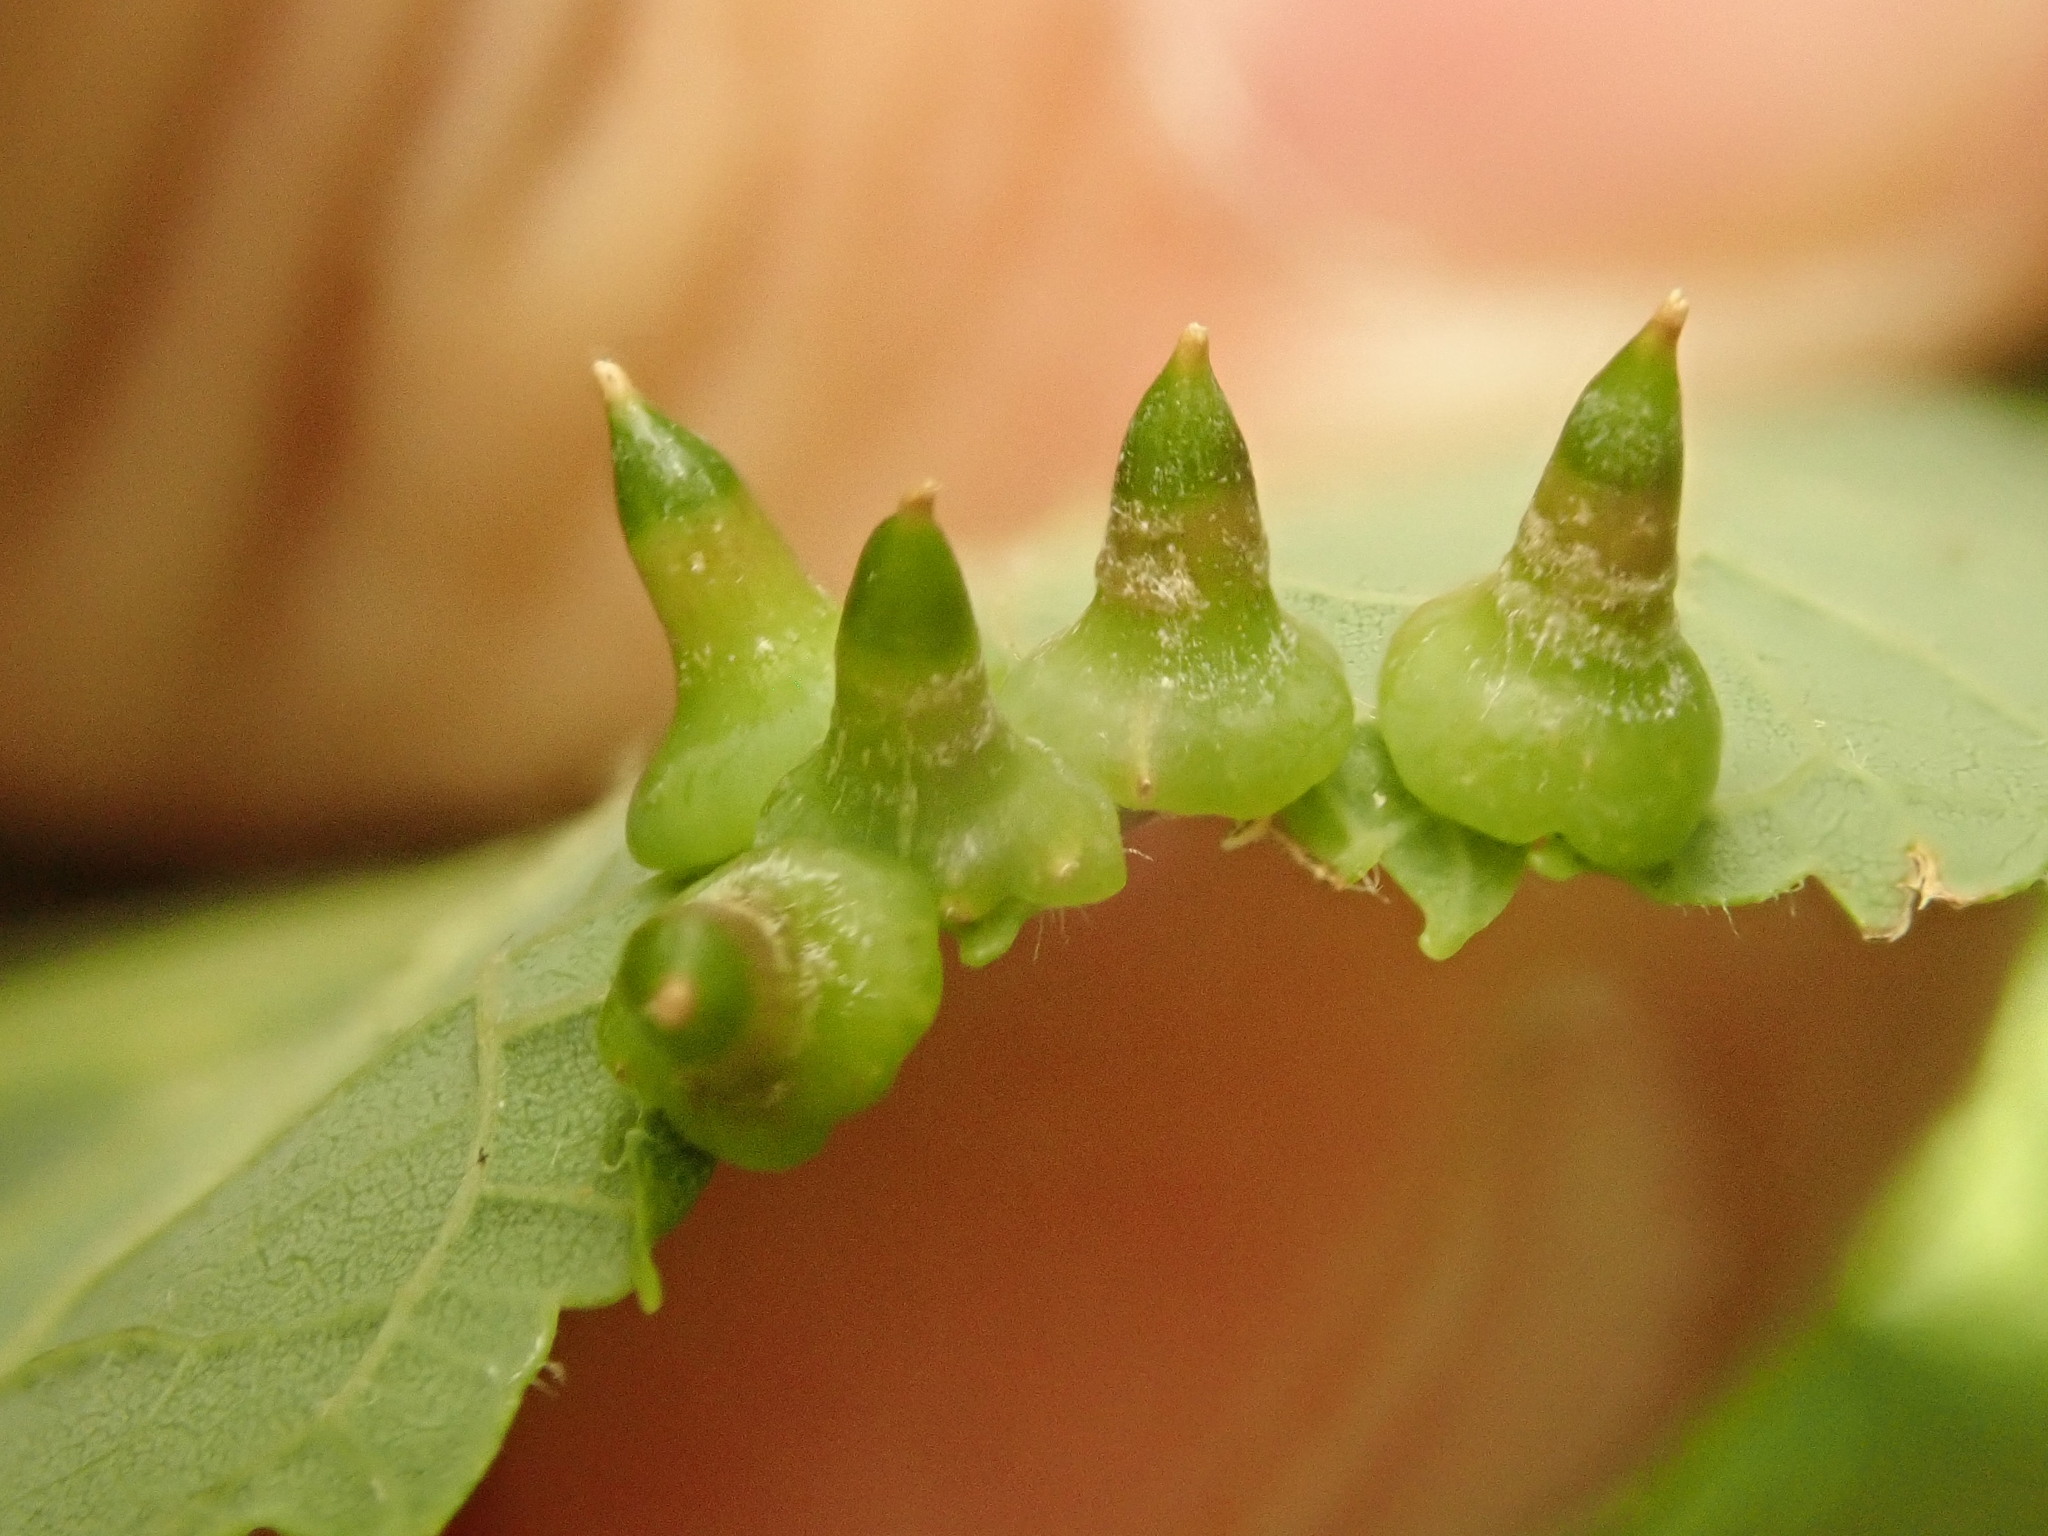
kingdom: Animalia
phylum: Arthropoda
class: Insecta
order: Diptera
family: Cecidomyiidae
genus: Celticecis
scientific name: Celticecis spiniformis
